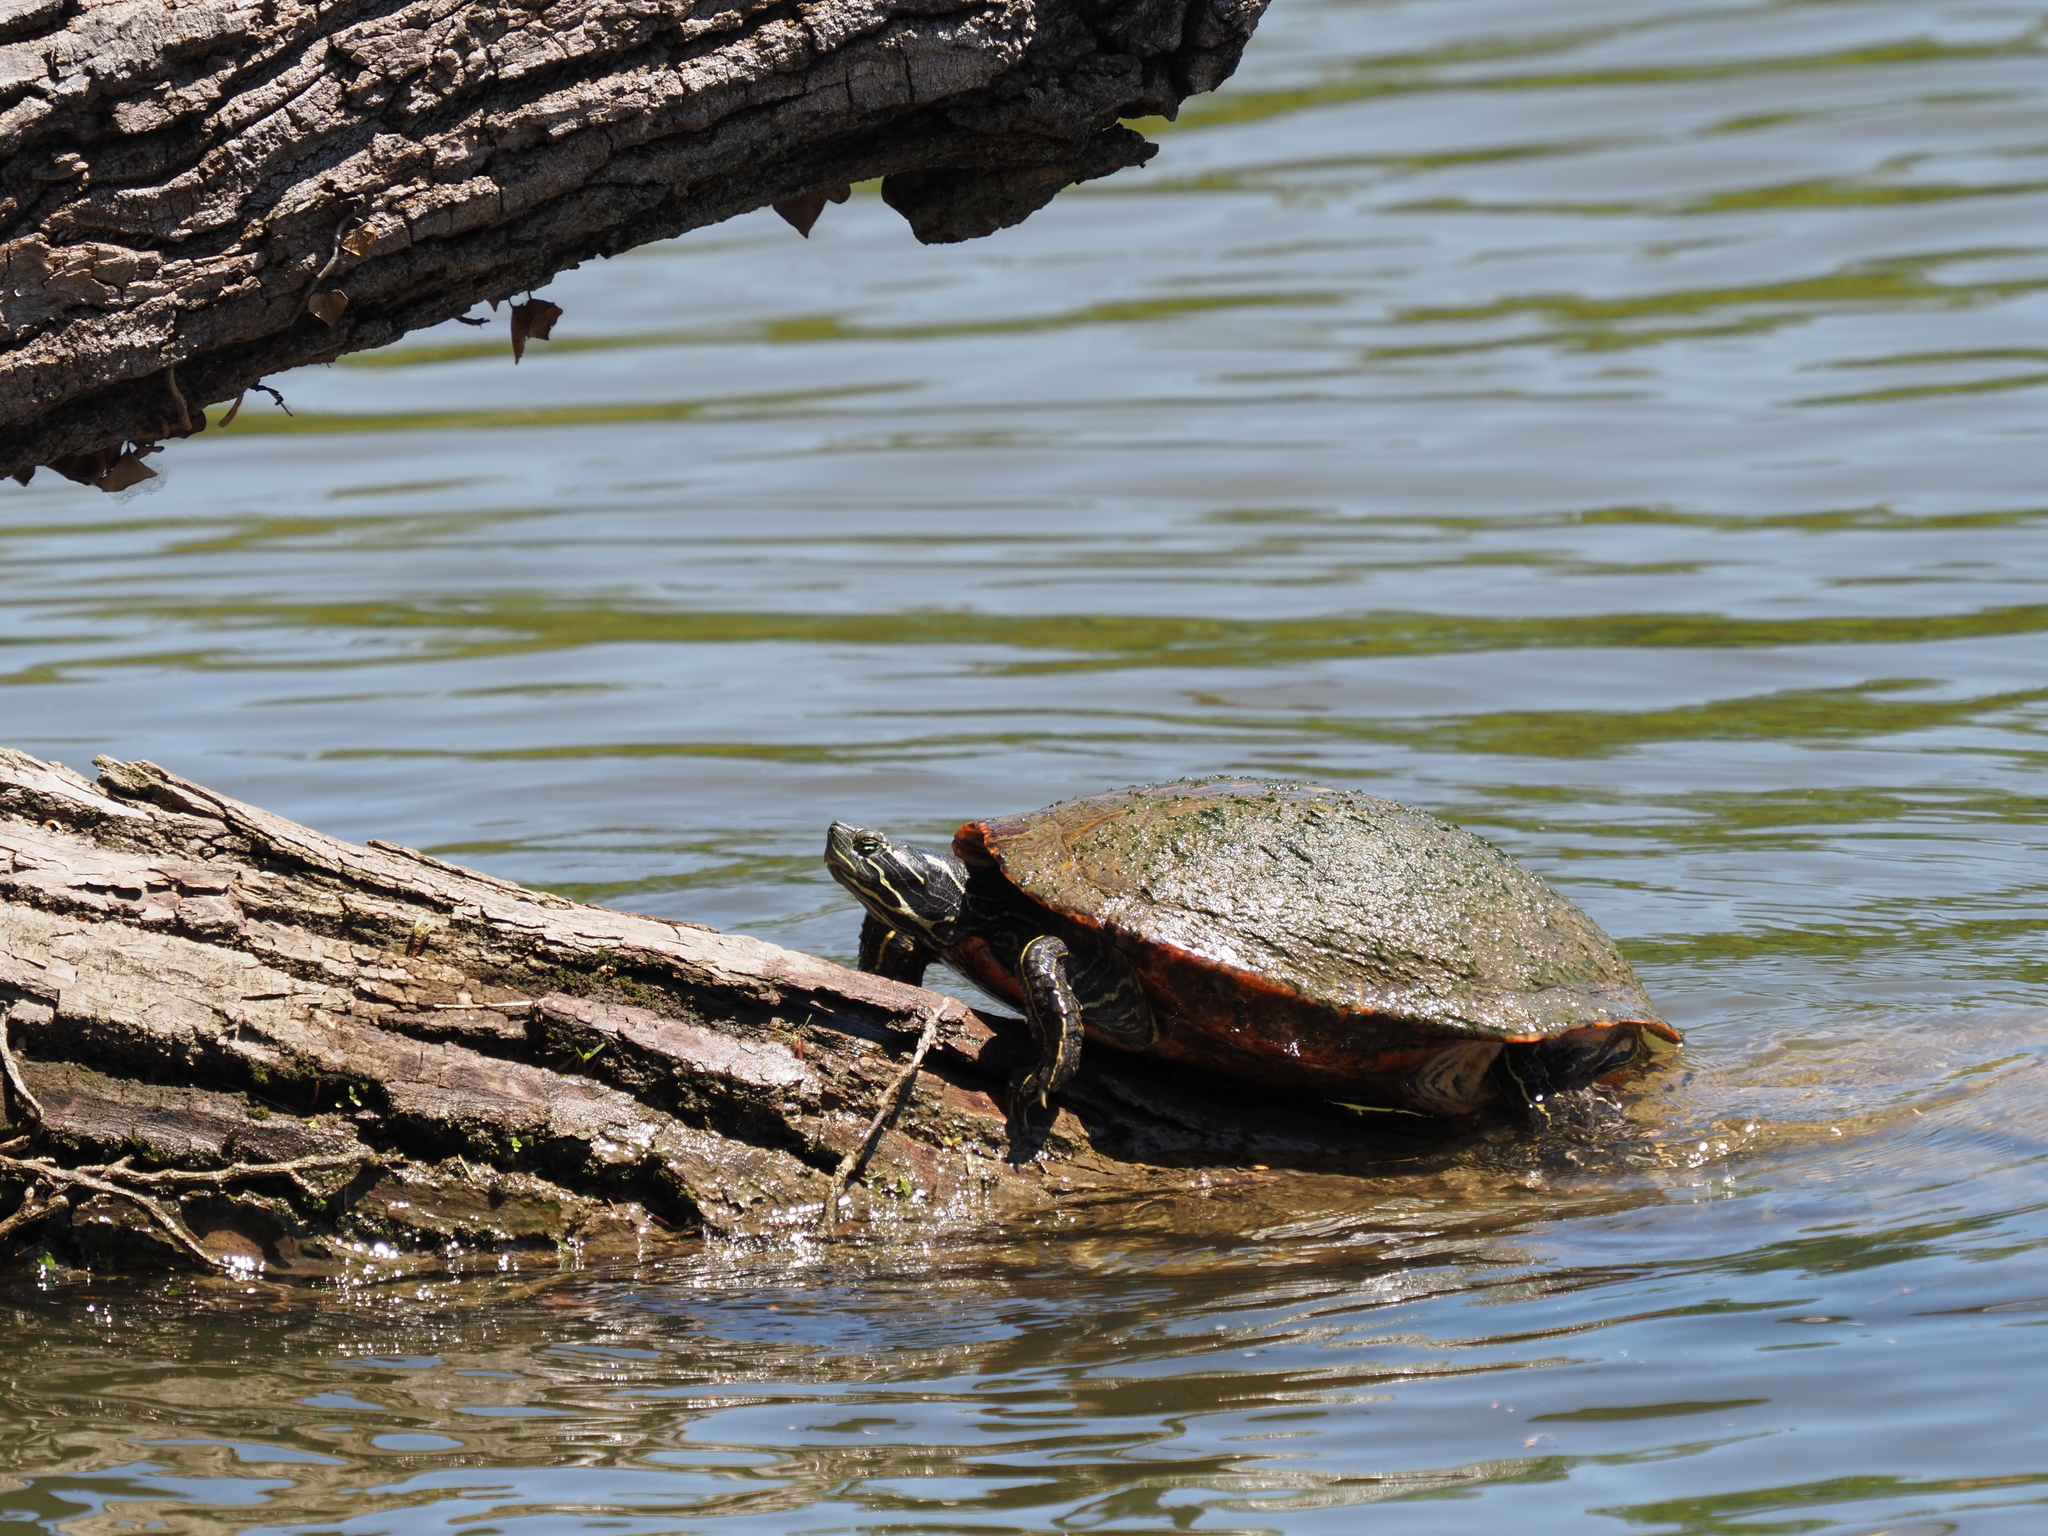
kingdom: Animalia
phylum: Chordata
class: Testudines
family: Emydidae
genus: Pseudemys
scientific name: Pseudemys rubriventris
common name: American red-bellied turtle
